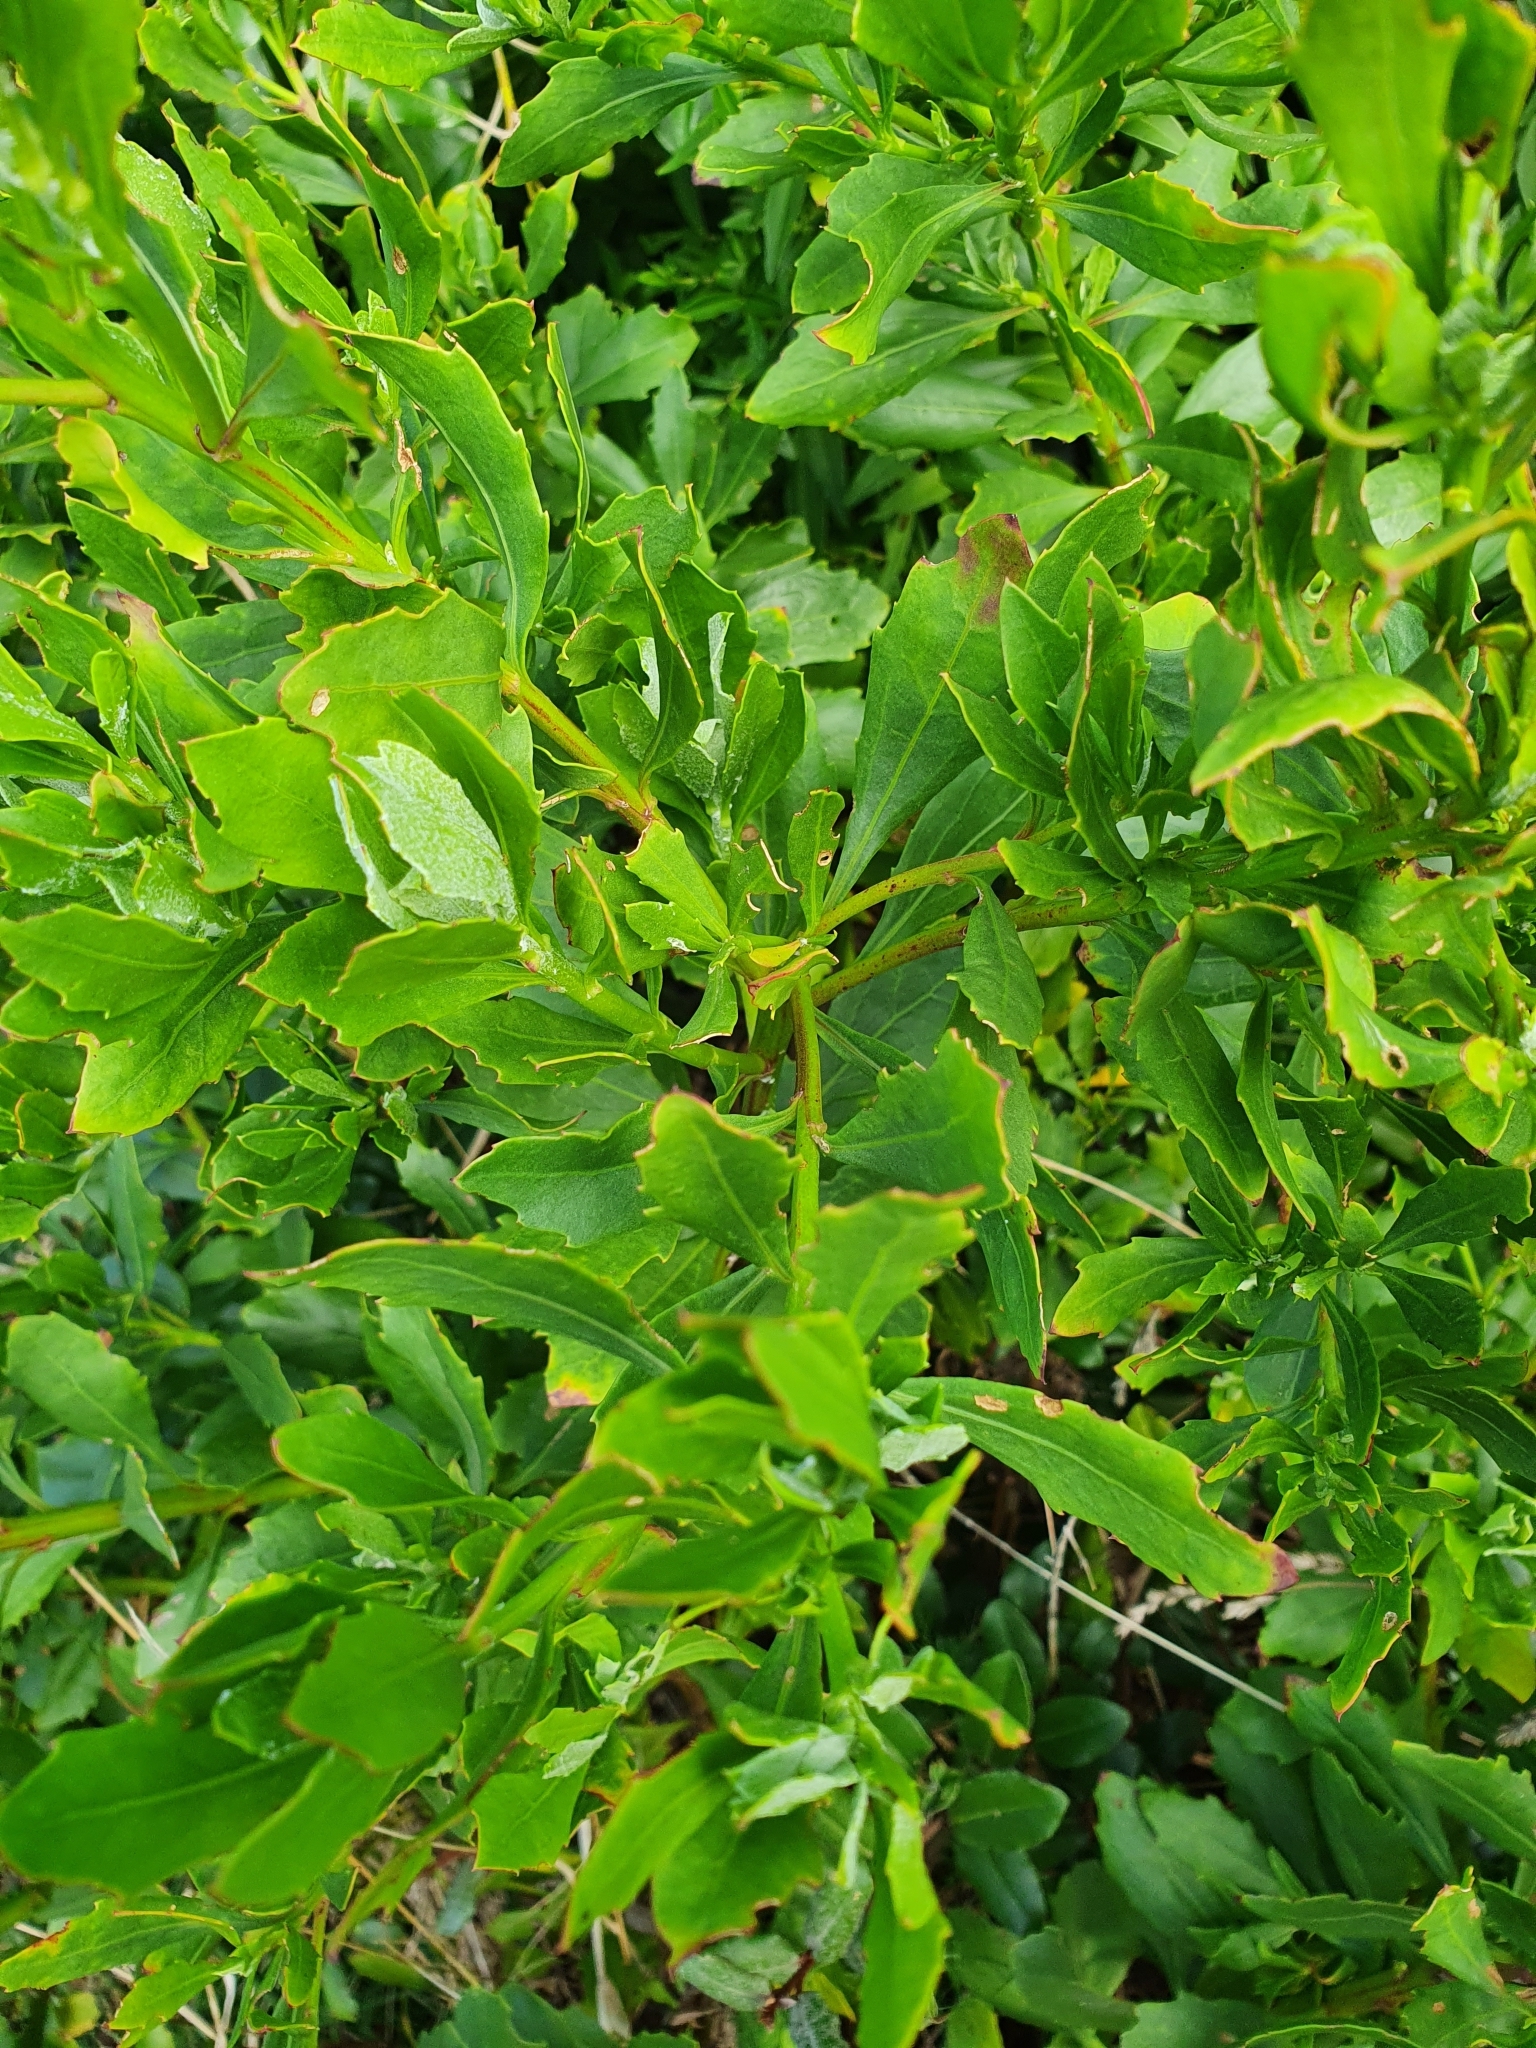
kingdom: Plantae
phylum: Tracheophyta
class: Magnoliopsida
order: Asterales
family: Asteraceae
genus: Osteospermum
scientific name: Osteospermum moniliferum
